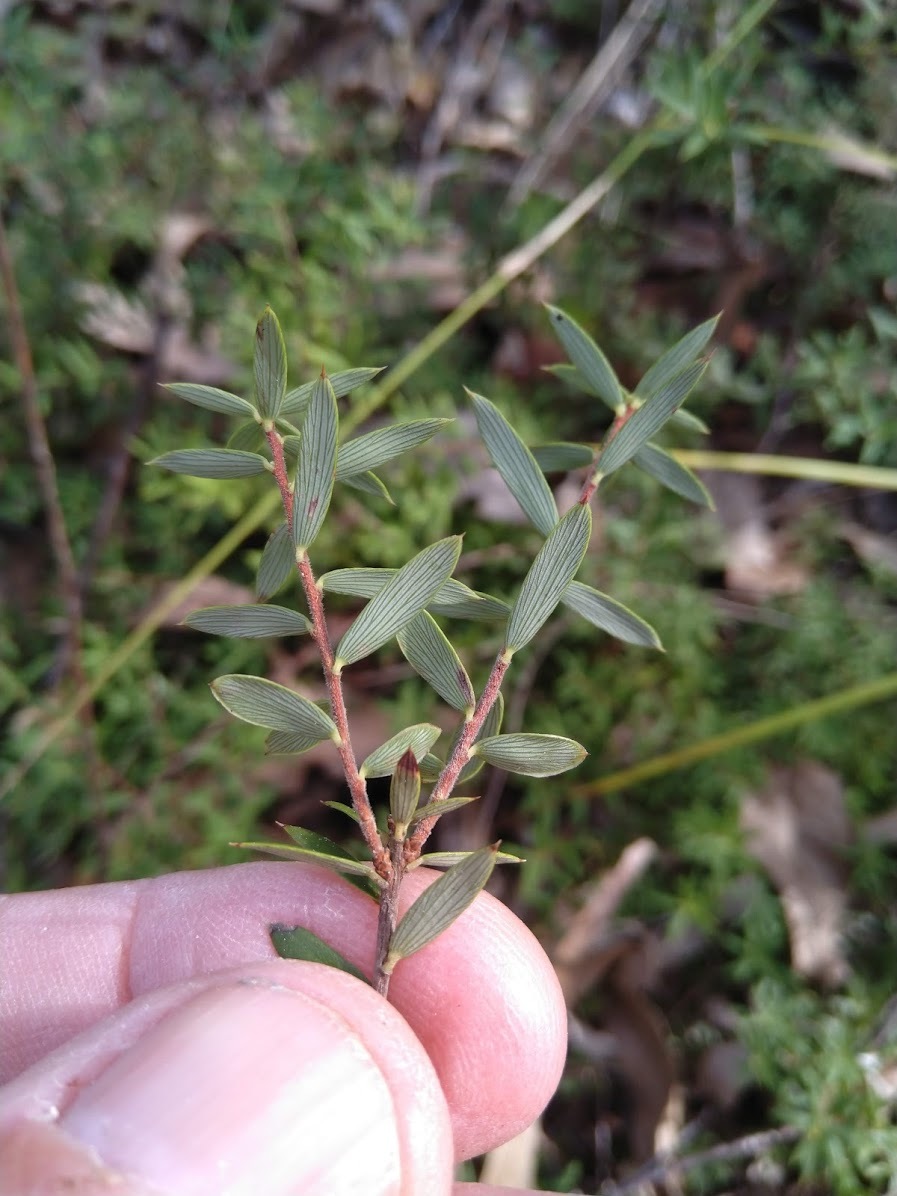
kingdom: Plantae
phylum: Tracheophyta
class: Magnoliopsida
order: Ericales
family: Ericaceae
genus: Acrotriche
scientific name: Acrotriche aggregata
